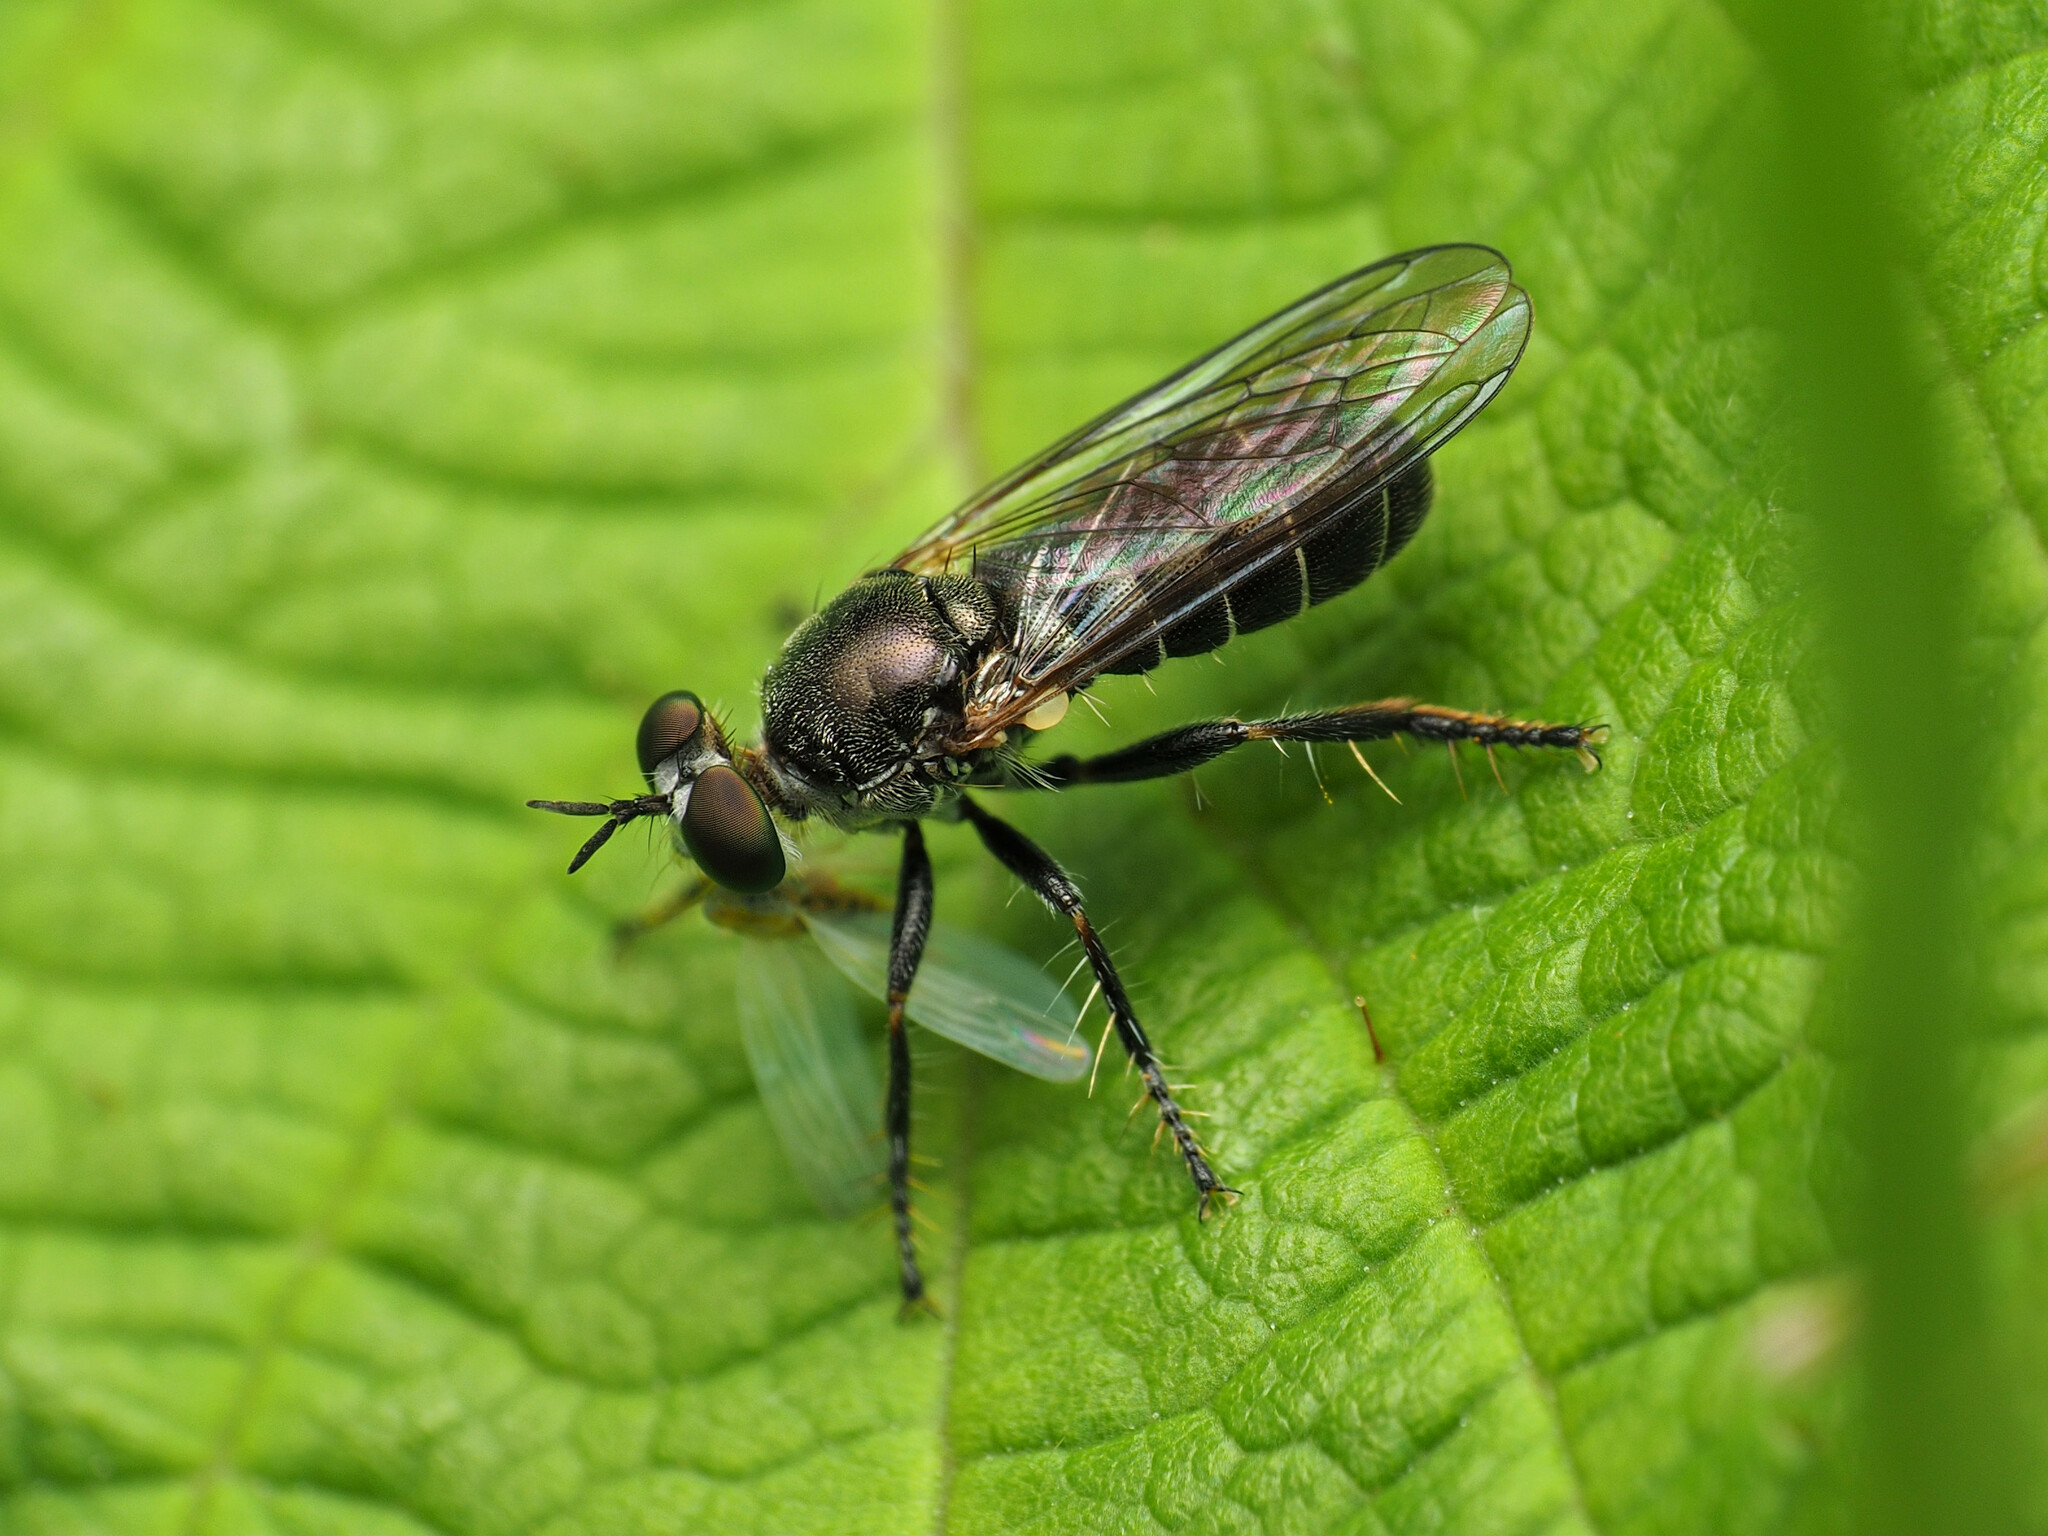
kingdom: Animalia
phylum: Arthropoda
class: Insecta
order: Diptera
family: Asilidae
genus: Atomosia
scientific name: Atomosia puella
